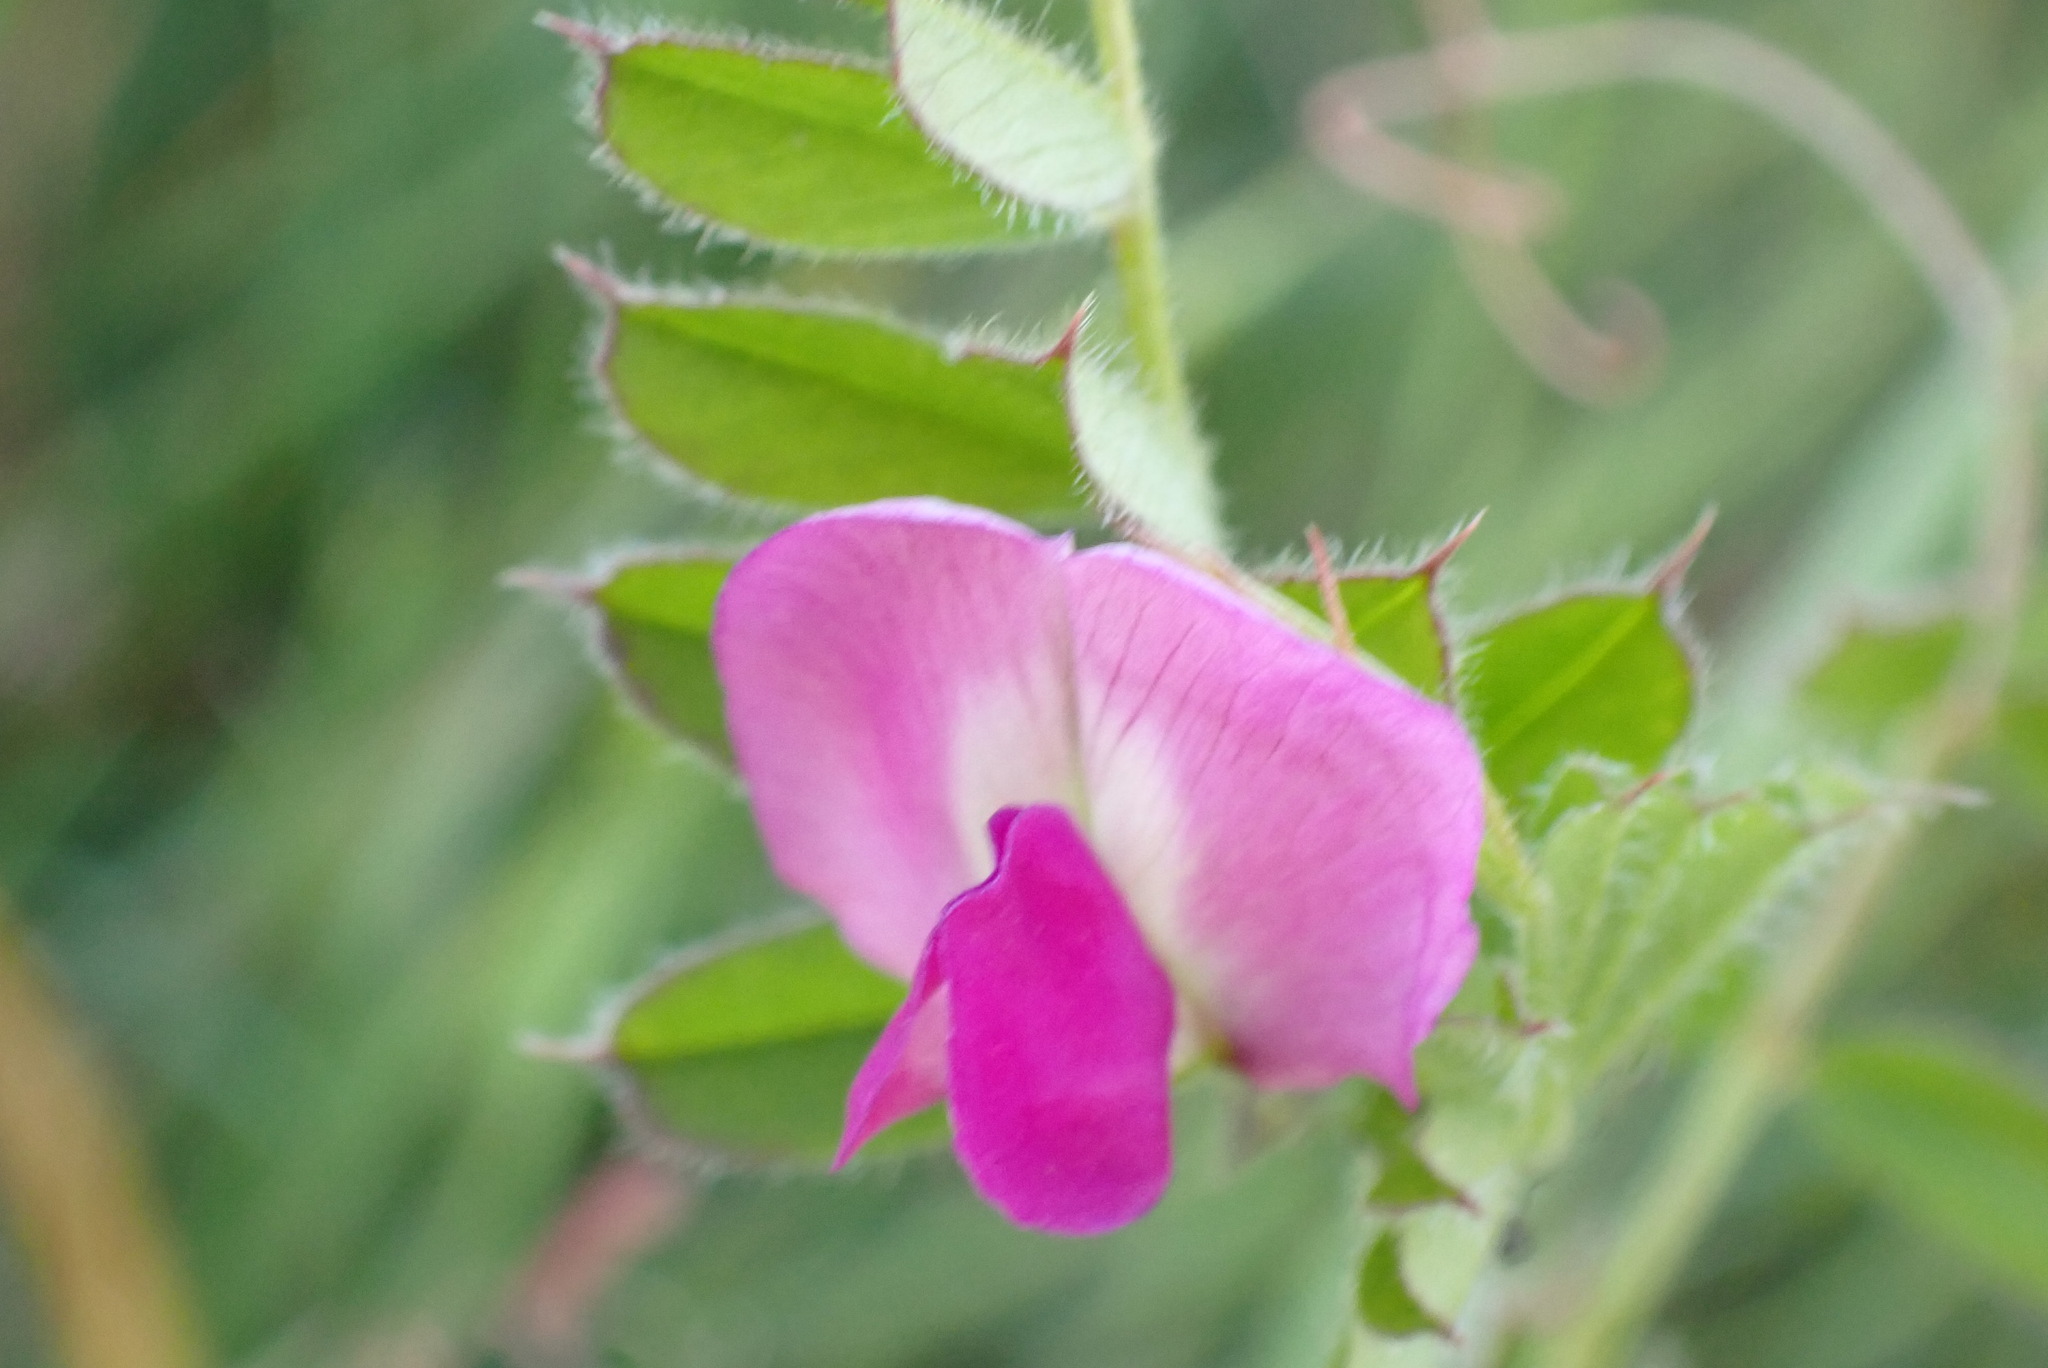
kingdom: Plantae
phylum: Tracheophyta
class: Magnoliopsida
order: Fabales
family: Fabaceae
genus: Vicia
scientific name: Vicia sativa
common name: Garden vetch
